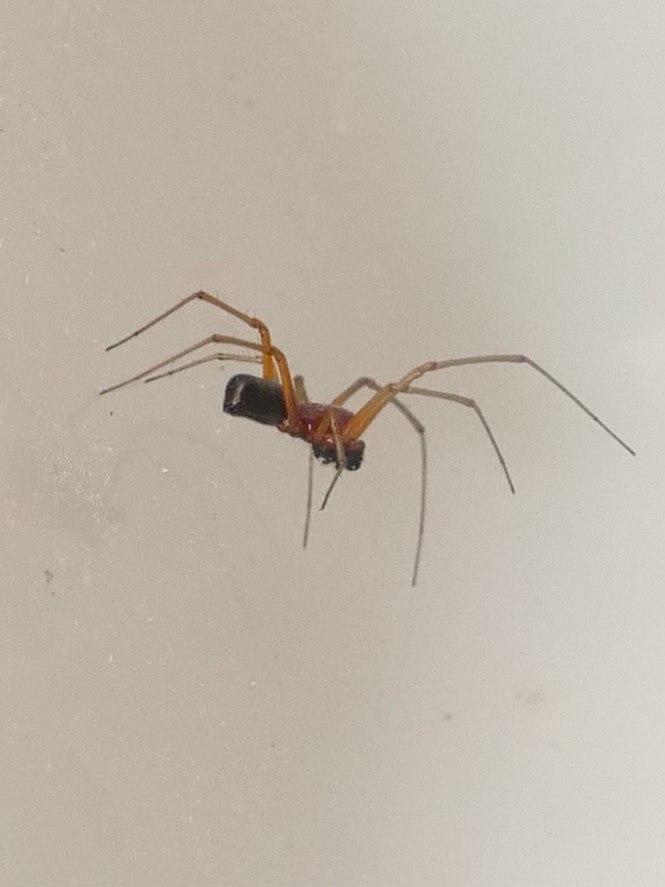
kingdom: Animalia
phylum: Arthropoda
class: Arachnida
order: Araneae
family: Linyphiidae
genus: Frontinellina
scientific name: Frontinellina frutetorum
